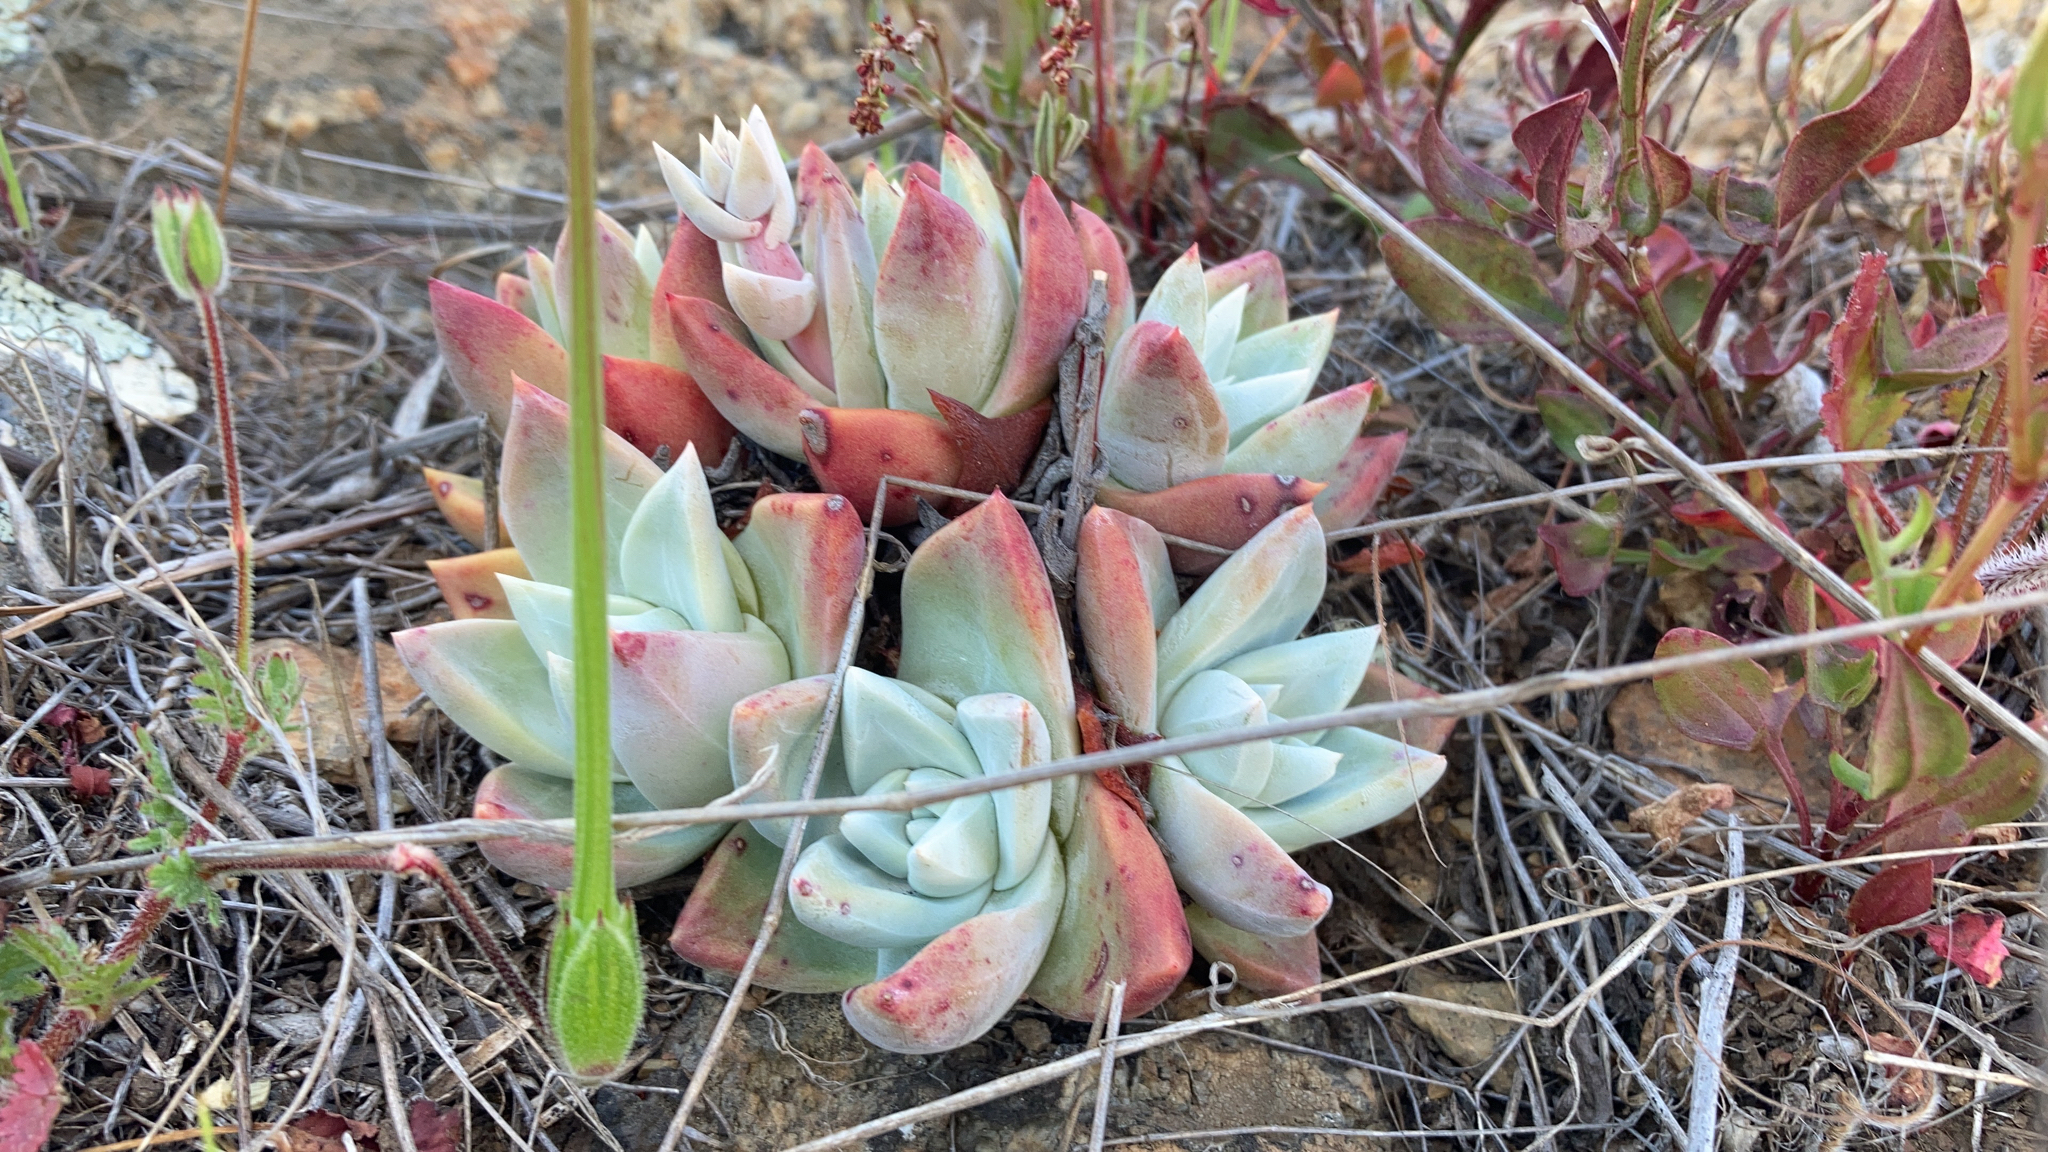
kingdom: Plantae
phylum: Tracheophyta
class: Magnoliopsida
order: Saxifragales
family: Crassulaceae
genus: Dudleya
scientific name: Dudleya farinosa
